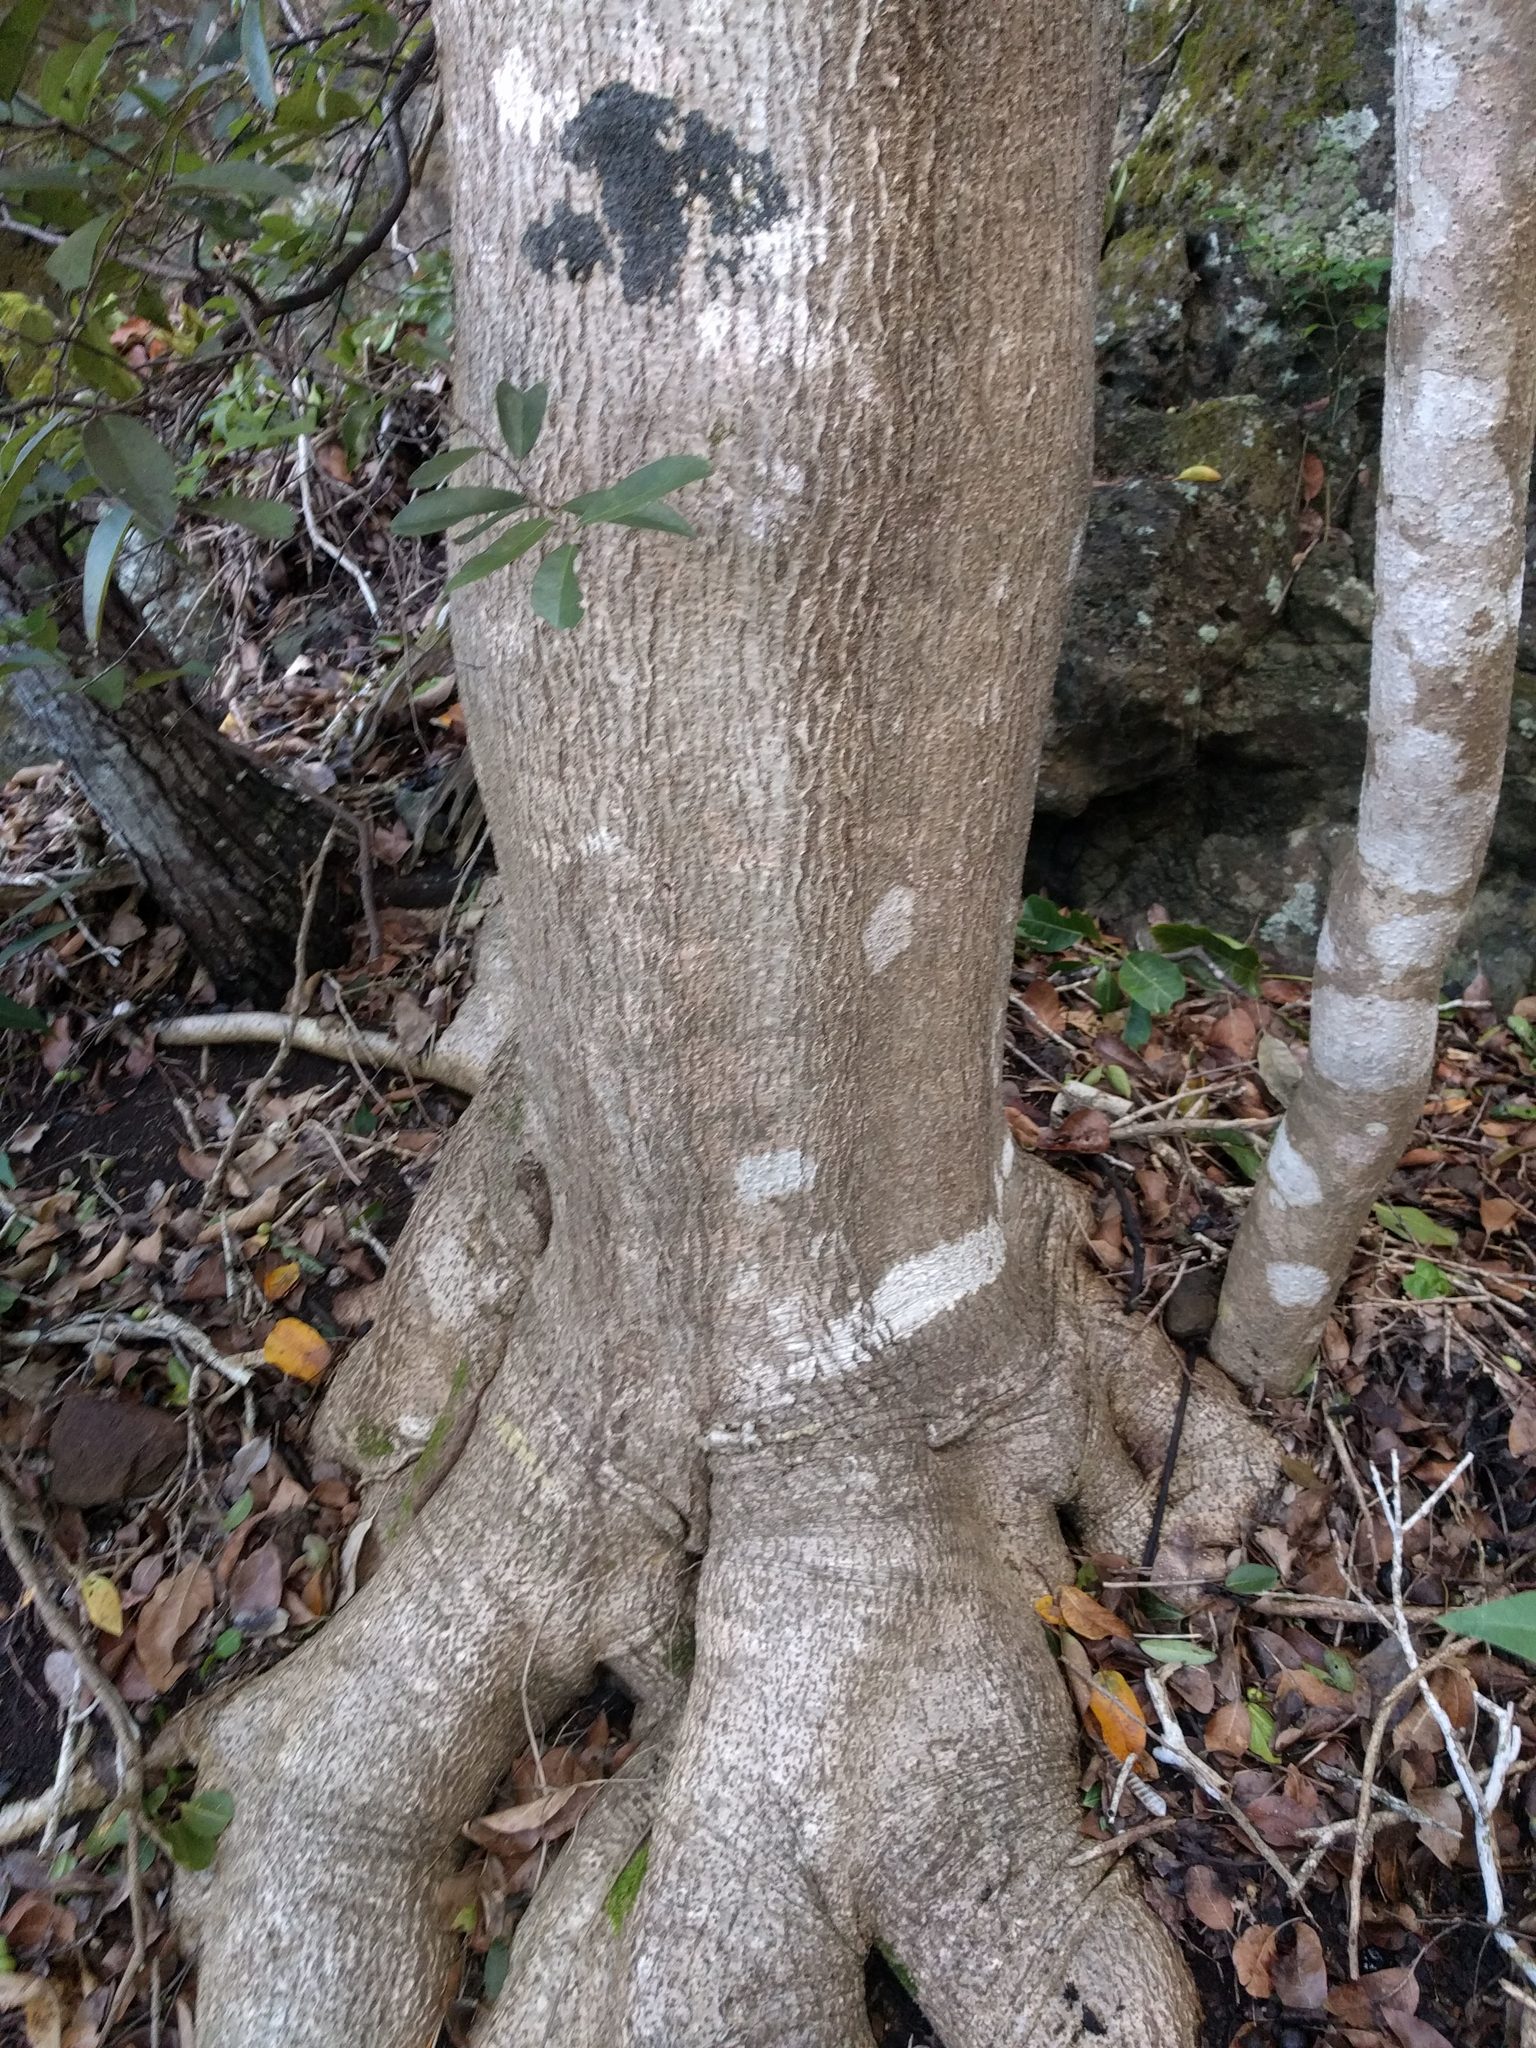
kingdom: Plantae
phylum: Tracheophyta
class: Magnoliopsida
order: Lamiales
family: Oleaceae
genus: Nestegis
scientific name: Nestegis sandwicensis
